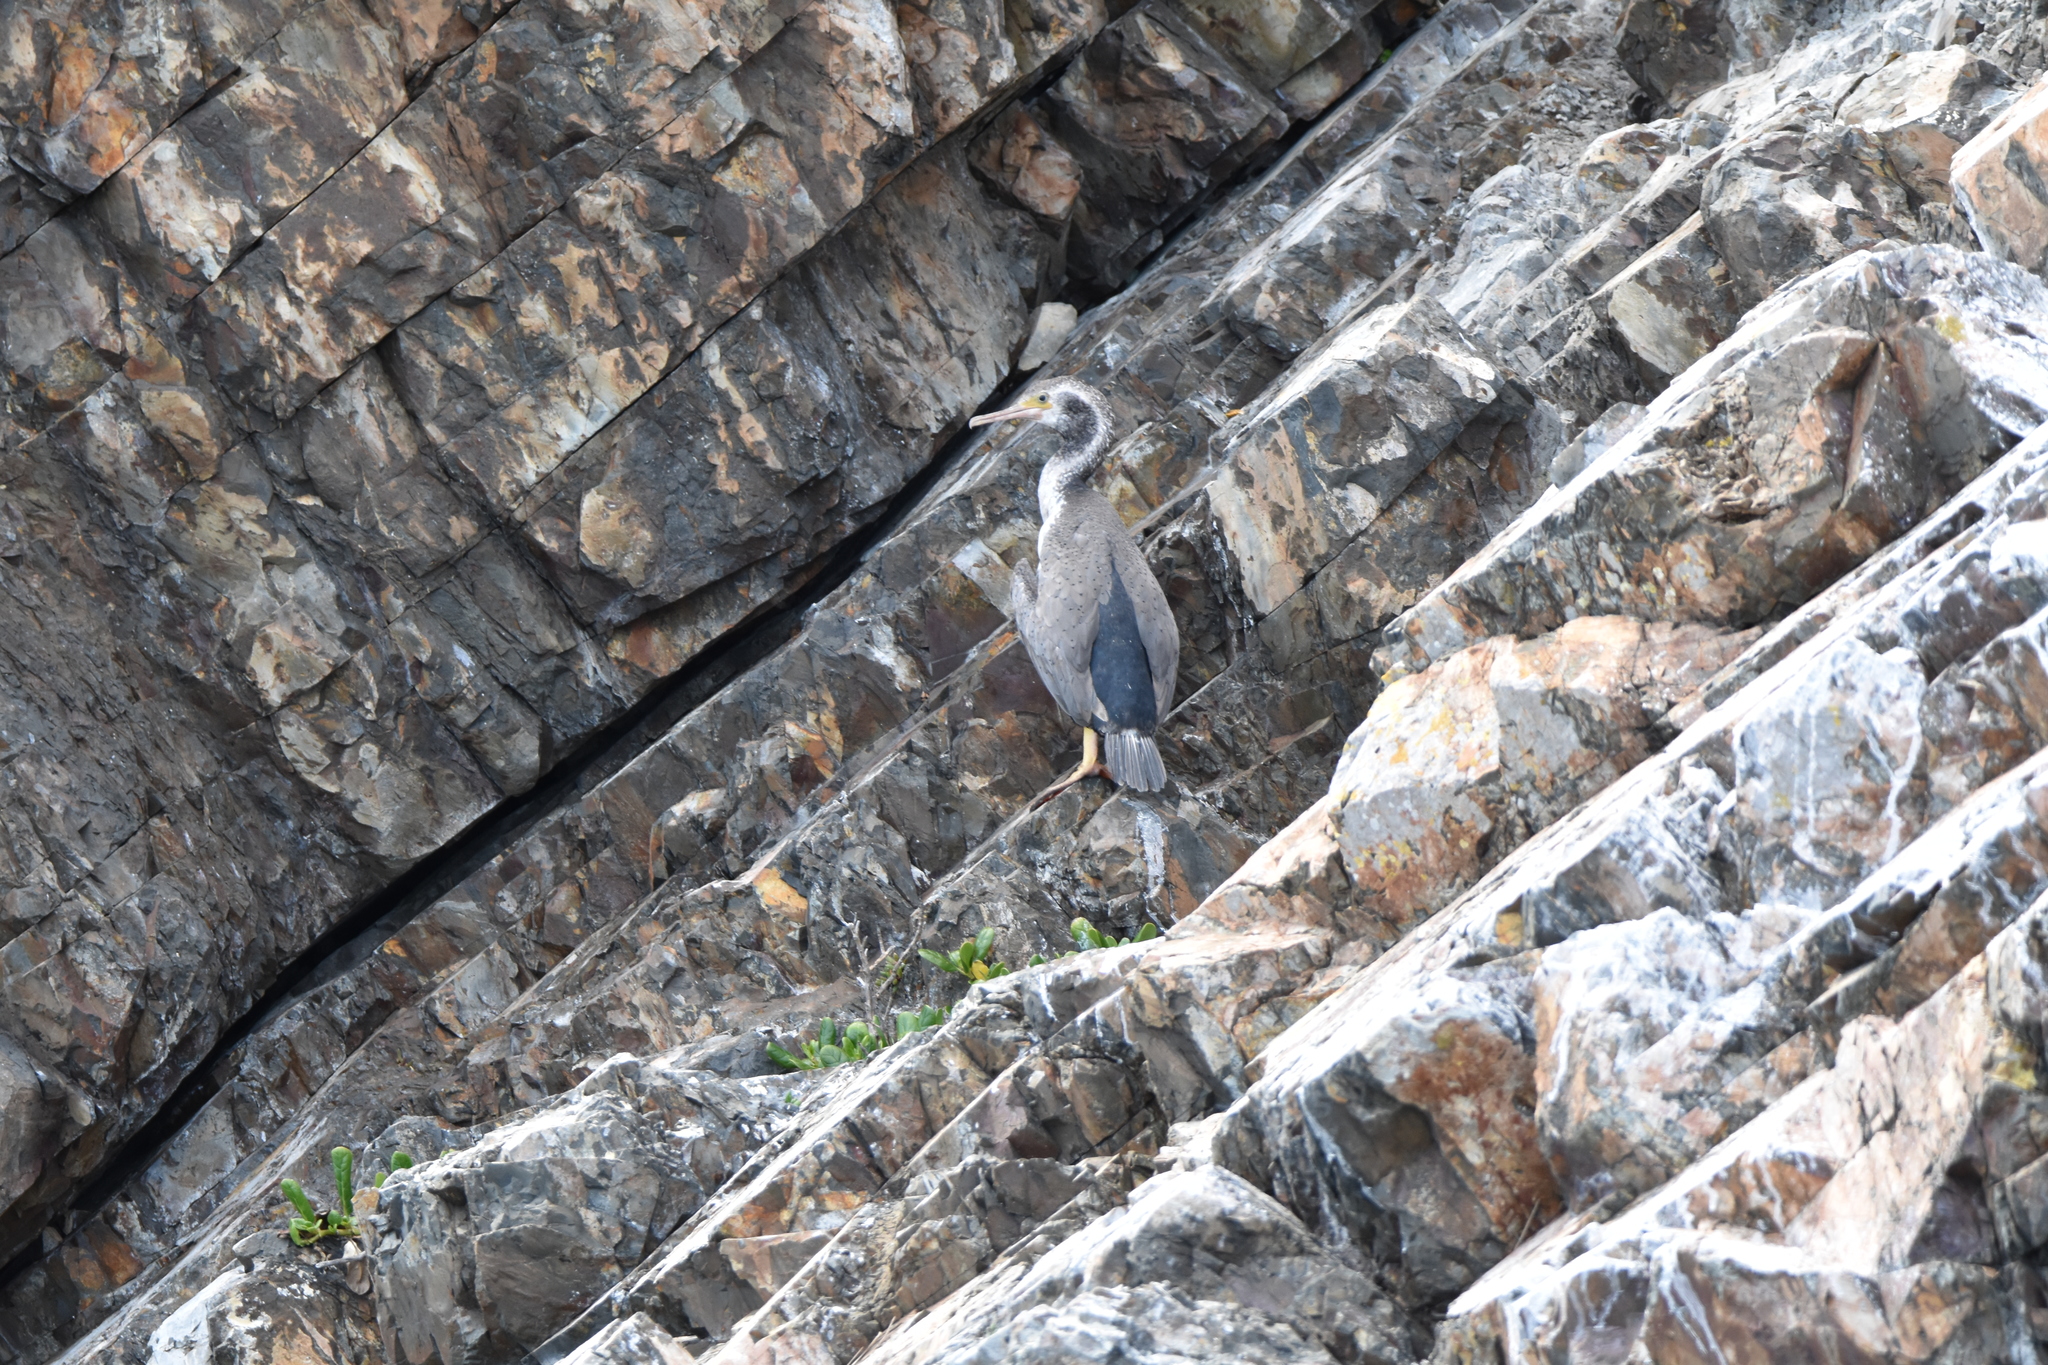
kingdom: Animalia
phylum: Chordata
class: Aves
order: Suliformes
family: Phalacrocoracidae
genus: Phalacrocorax
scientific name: Phalacrocorax punctatus
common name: Spotted shag
